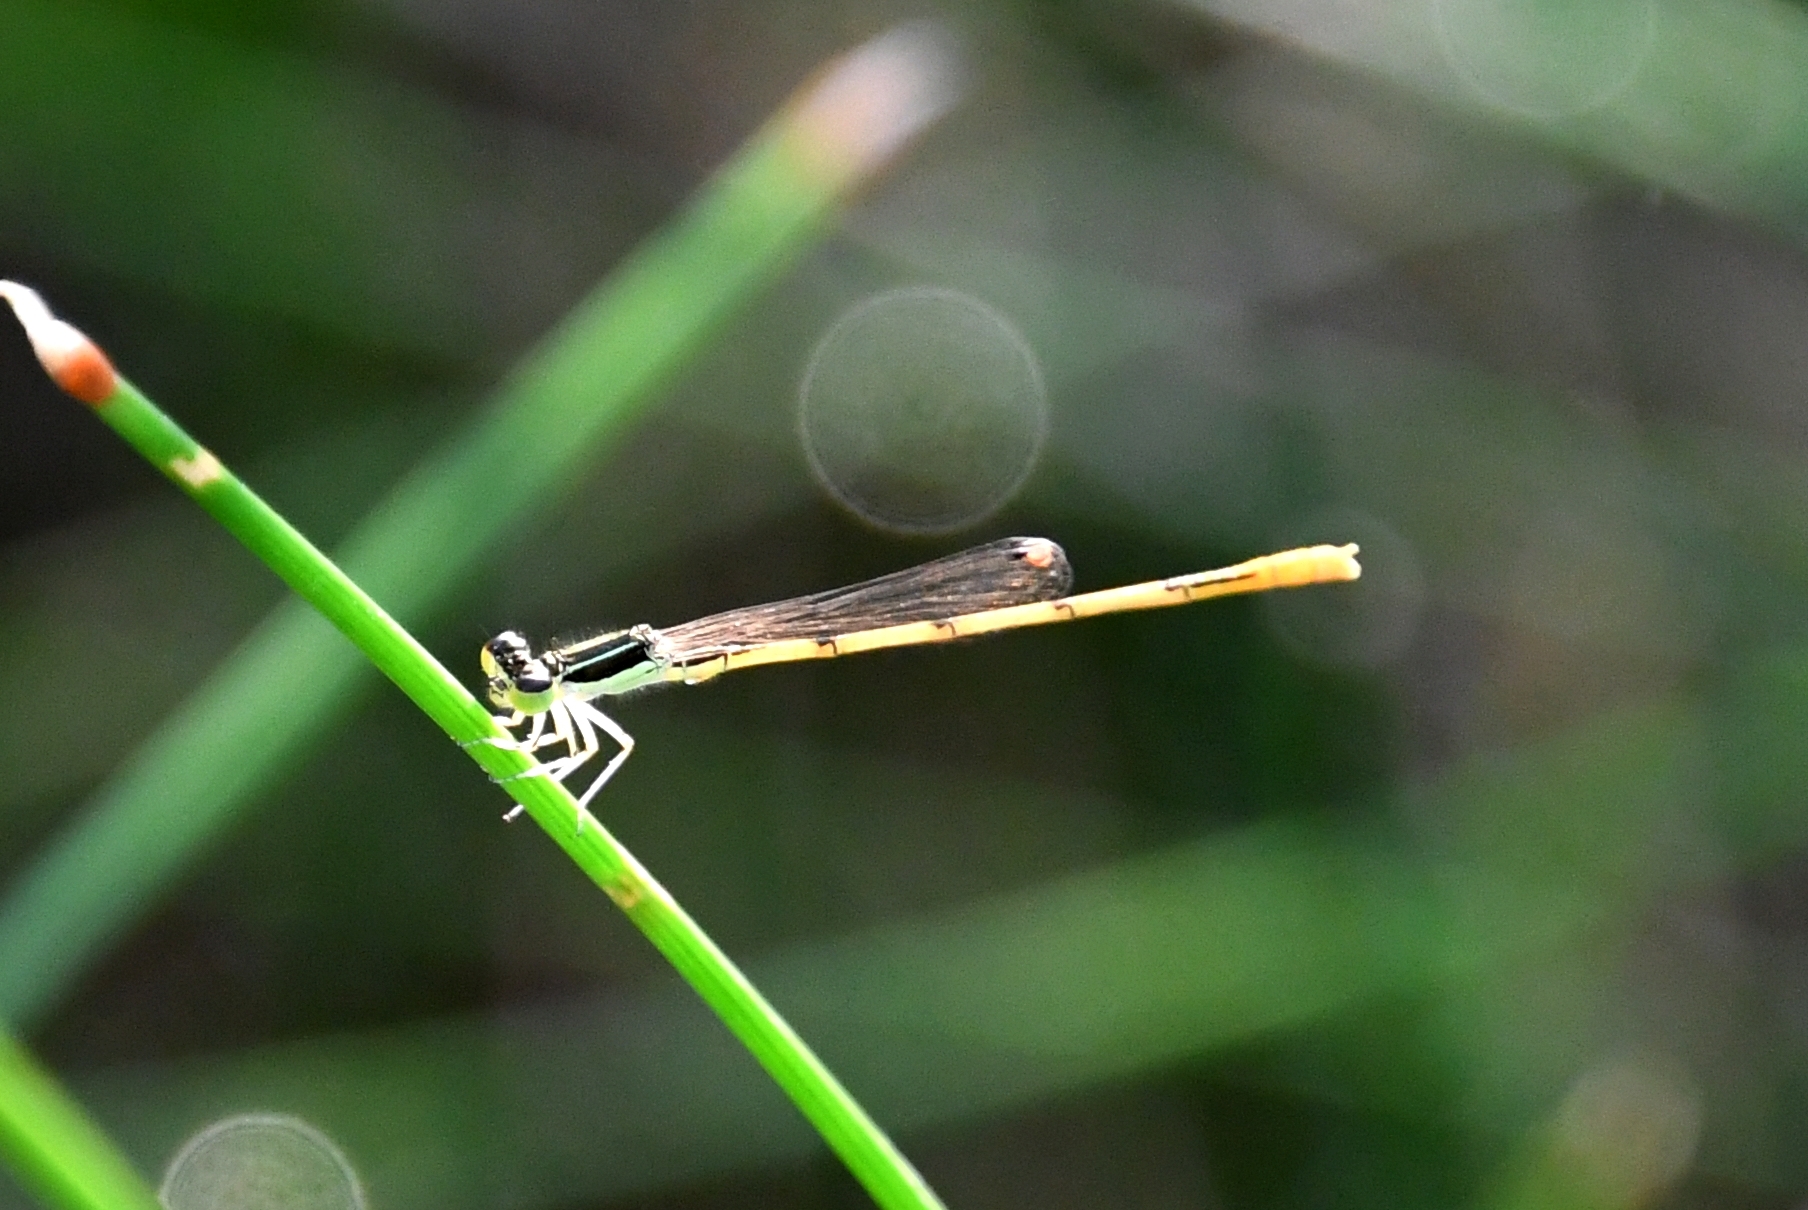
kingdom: Animalia
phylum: Arthropoda
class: Insecta
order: Odonata
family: Coenagrionidae
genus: Ischnura
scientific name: Ischnura hastata
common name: Citrine forktail
